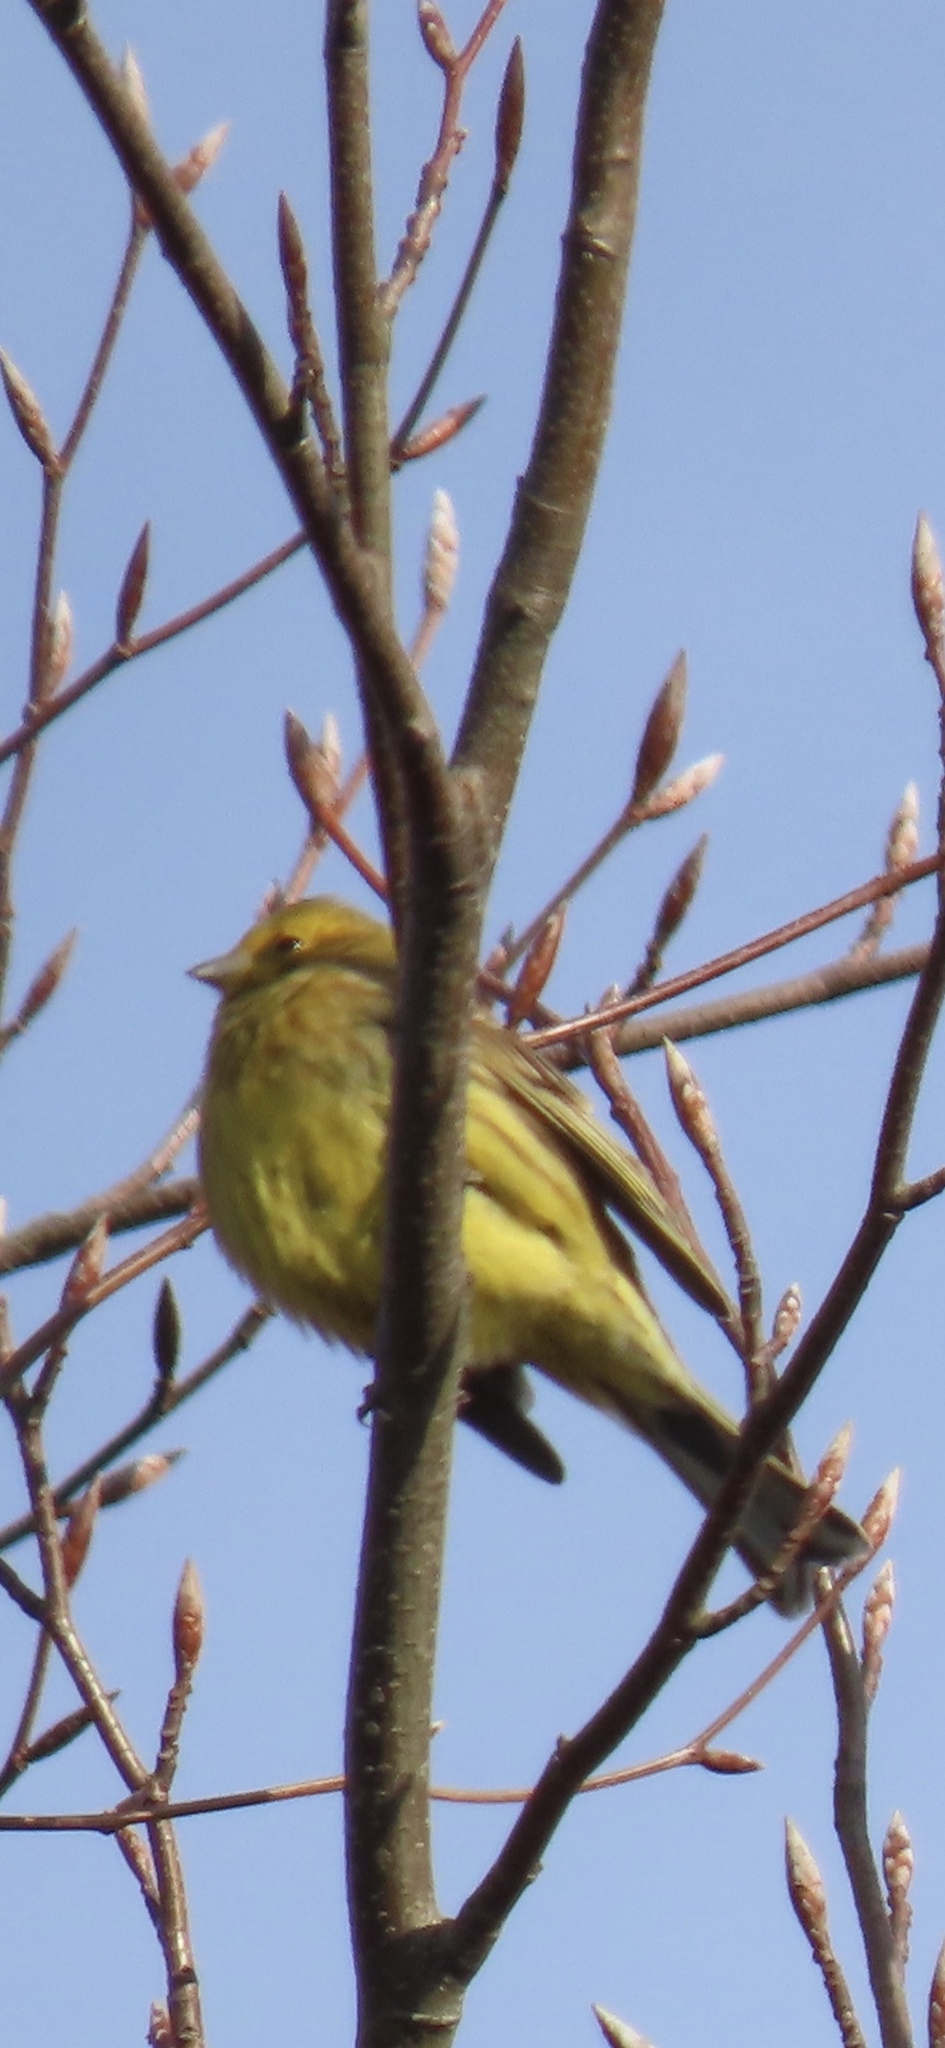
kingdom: Animalia
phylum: Chordata
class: Aves
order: Passeriformes
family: Emberizidae
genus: Emberiza
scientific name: Emberiza citrinella
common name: Yellowhammer
